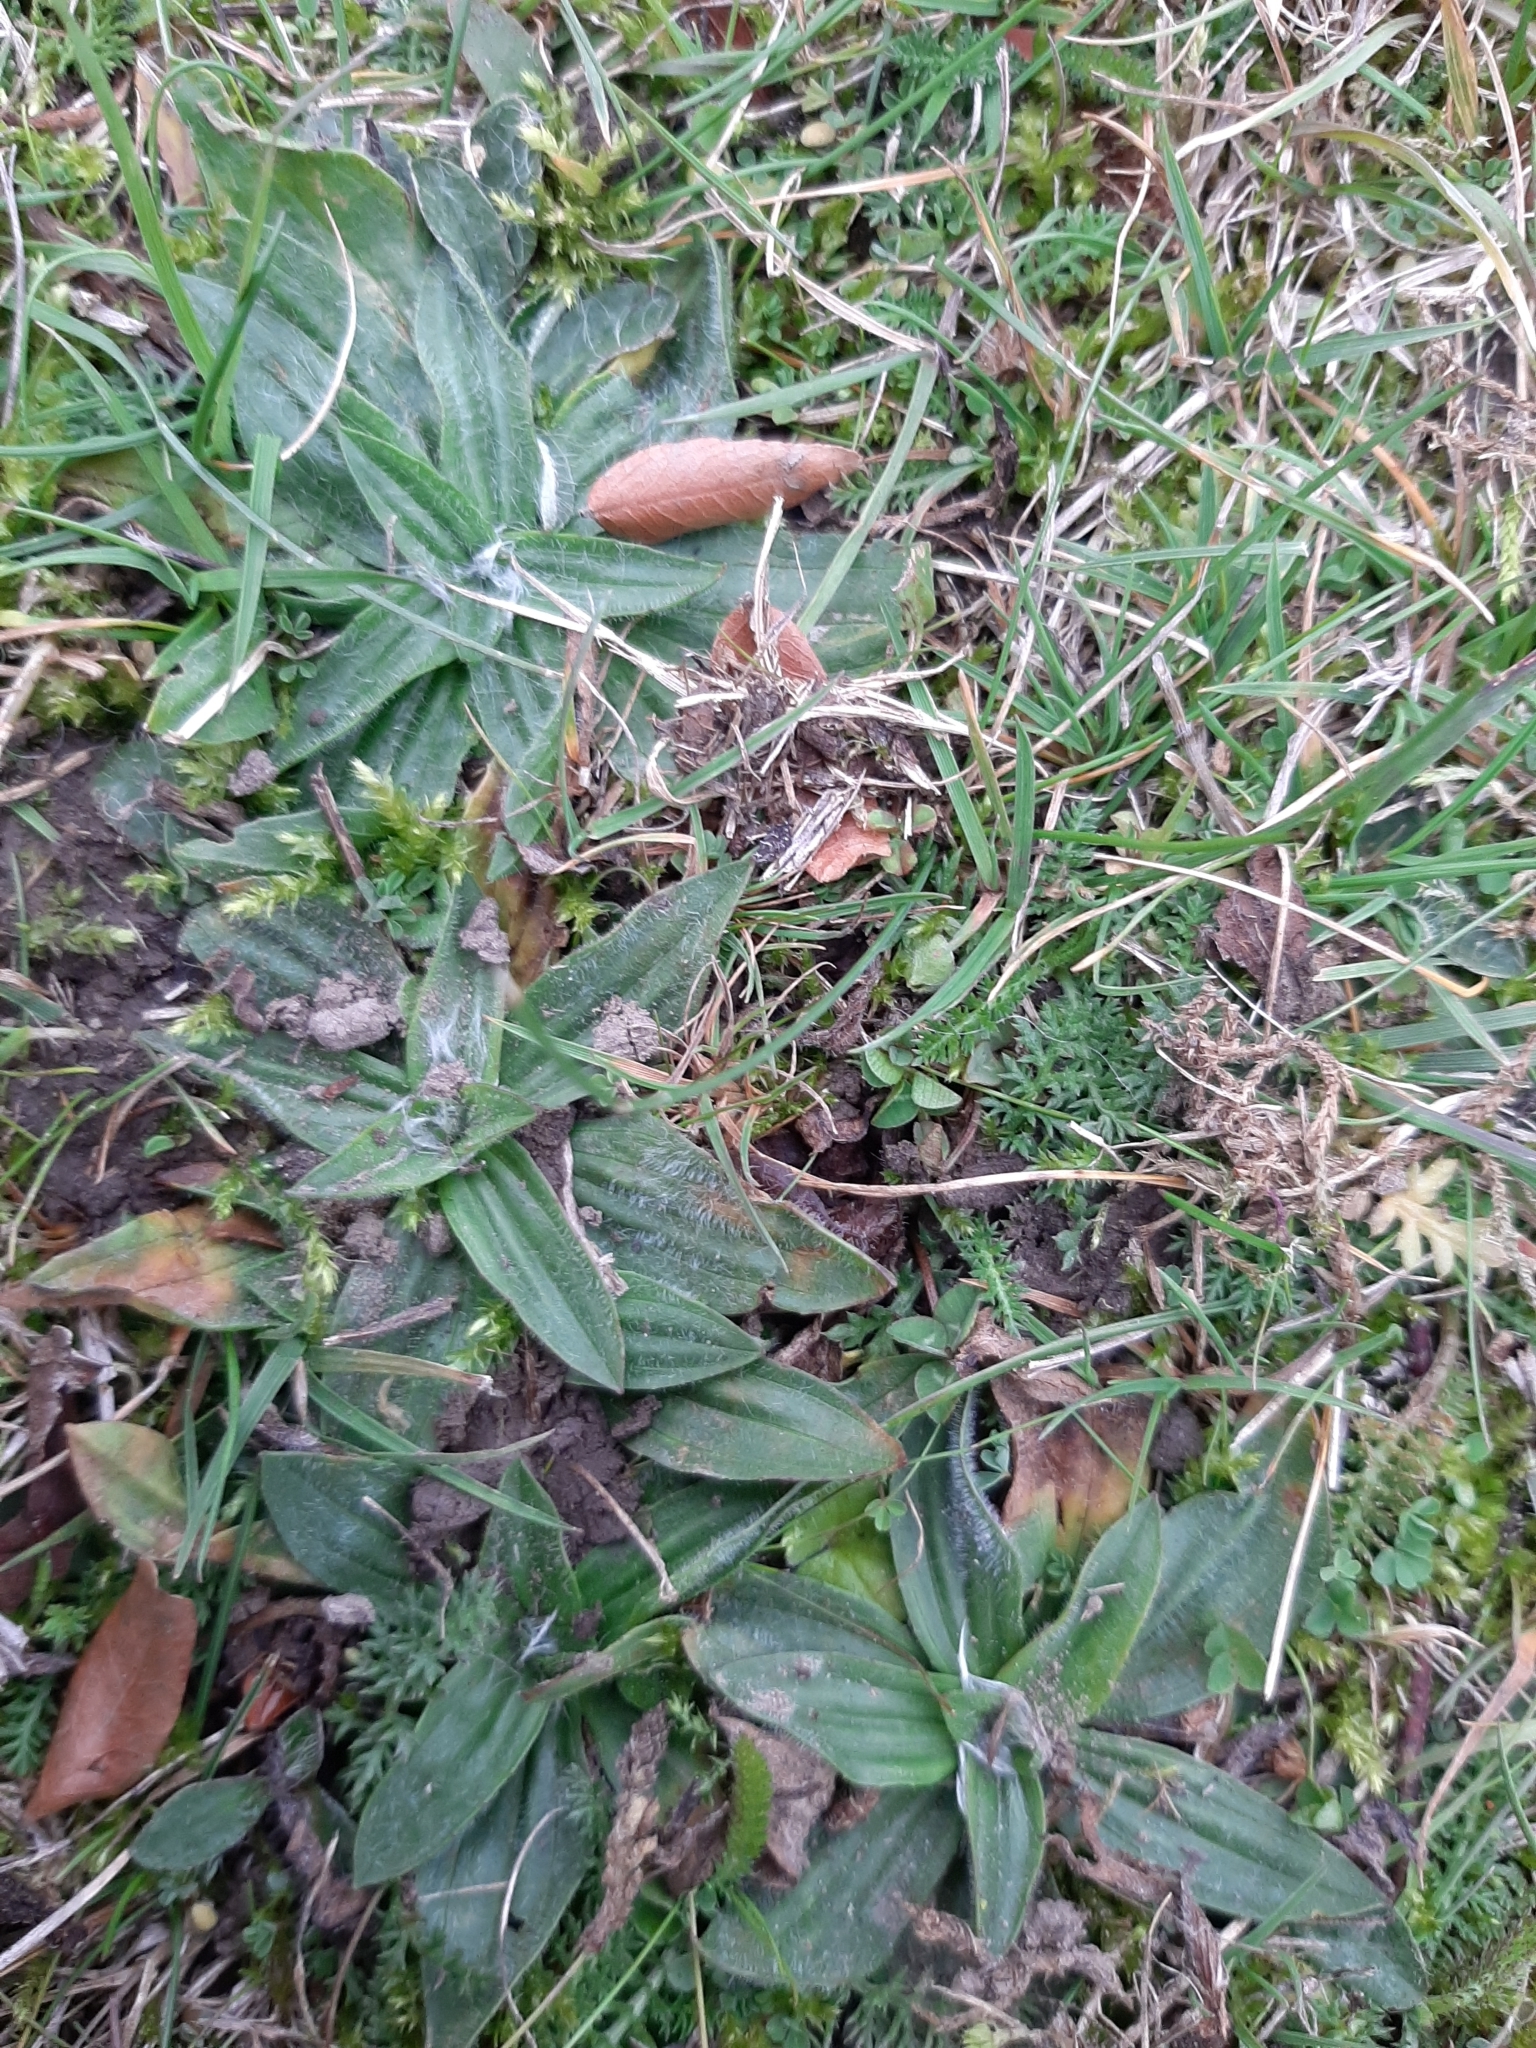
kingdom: Plantae
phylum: Tracheophyta
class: Magnoliopsida
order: Lamiales
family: Plantaginaceae
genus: Plantago
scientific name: Plantago lanceolata
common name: Ribwort plantain
